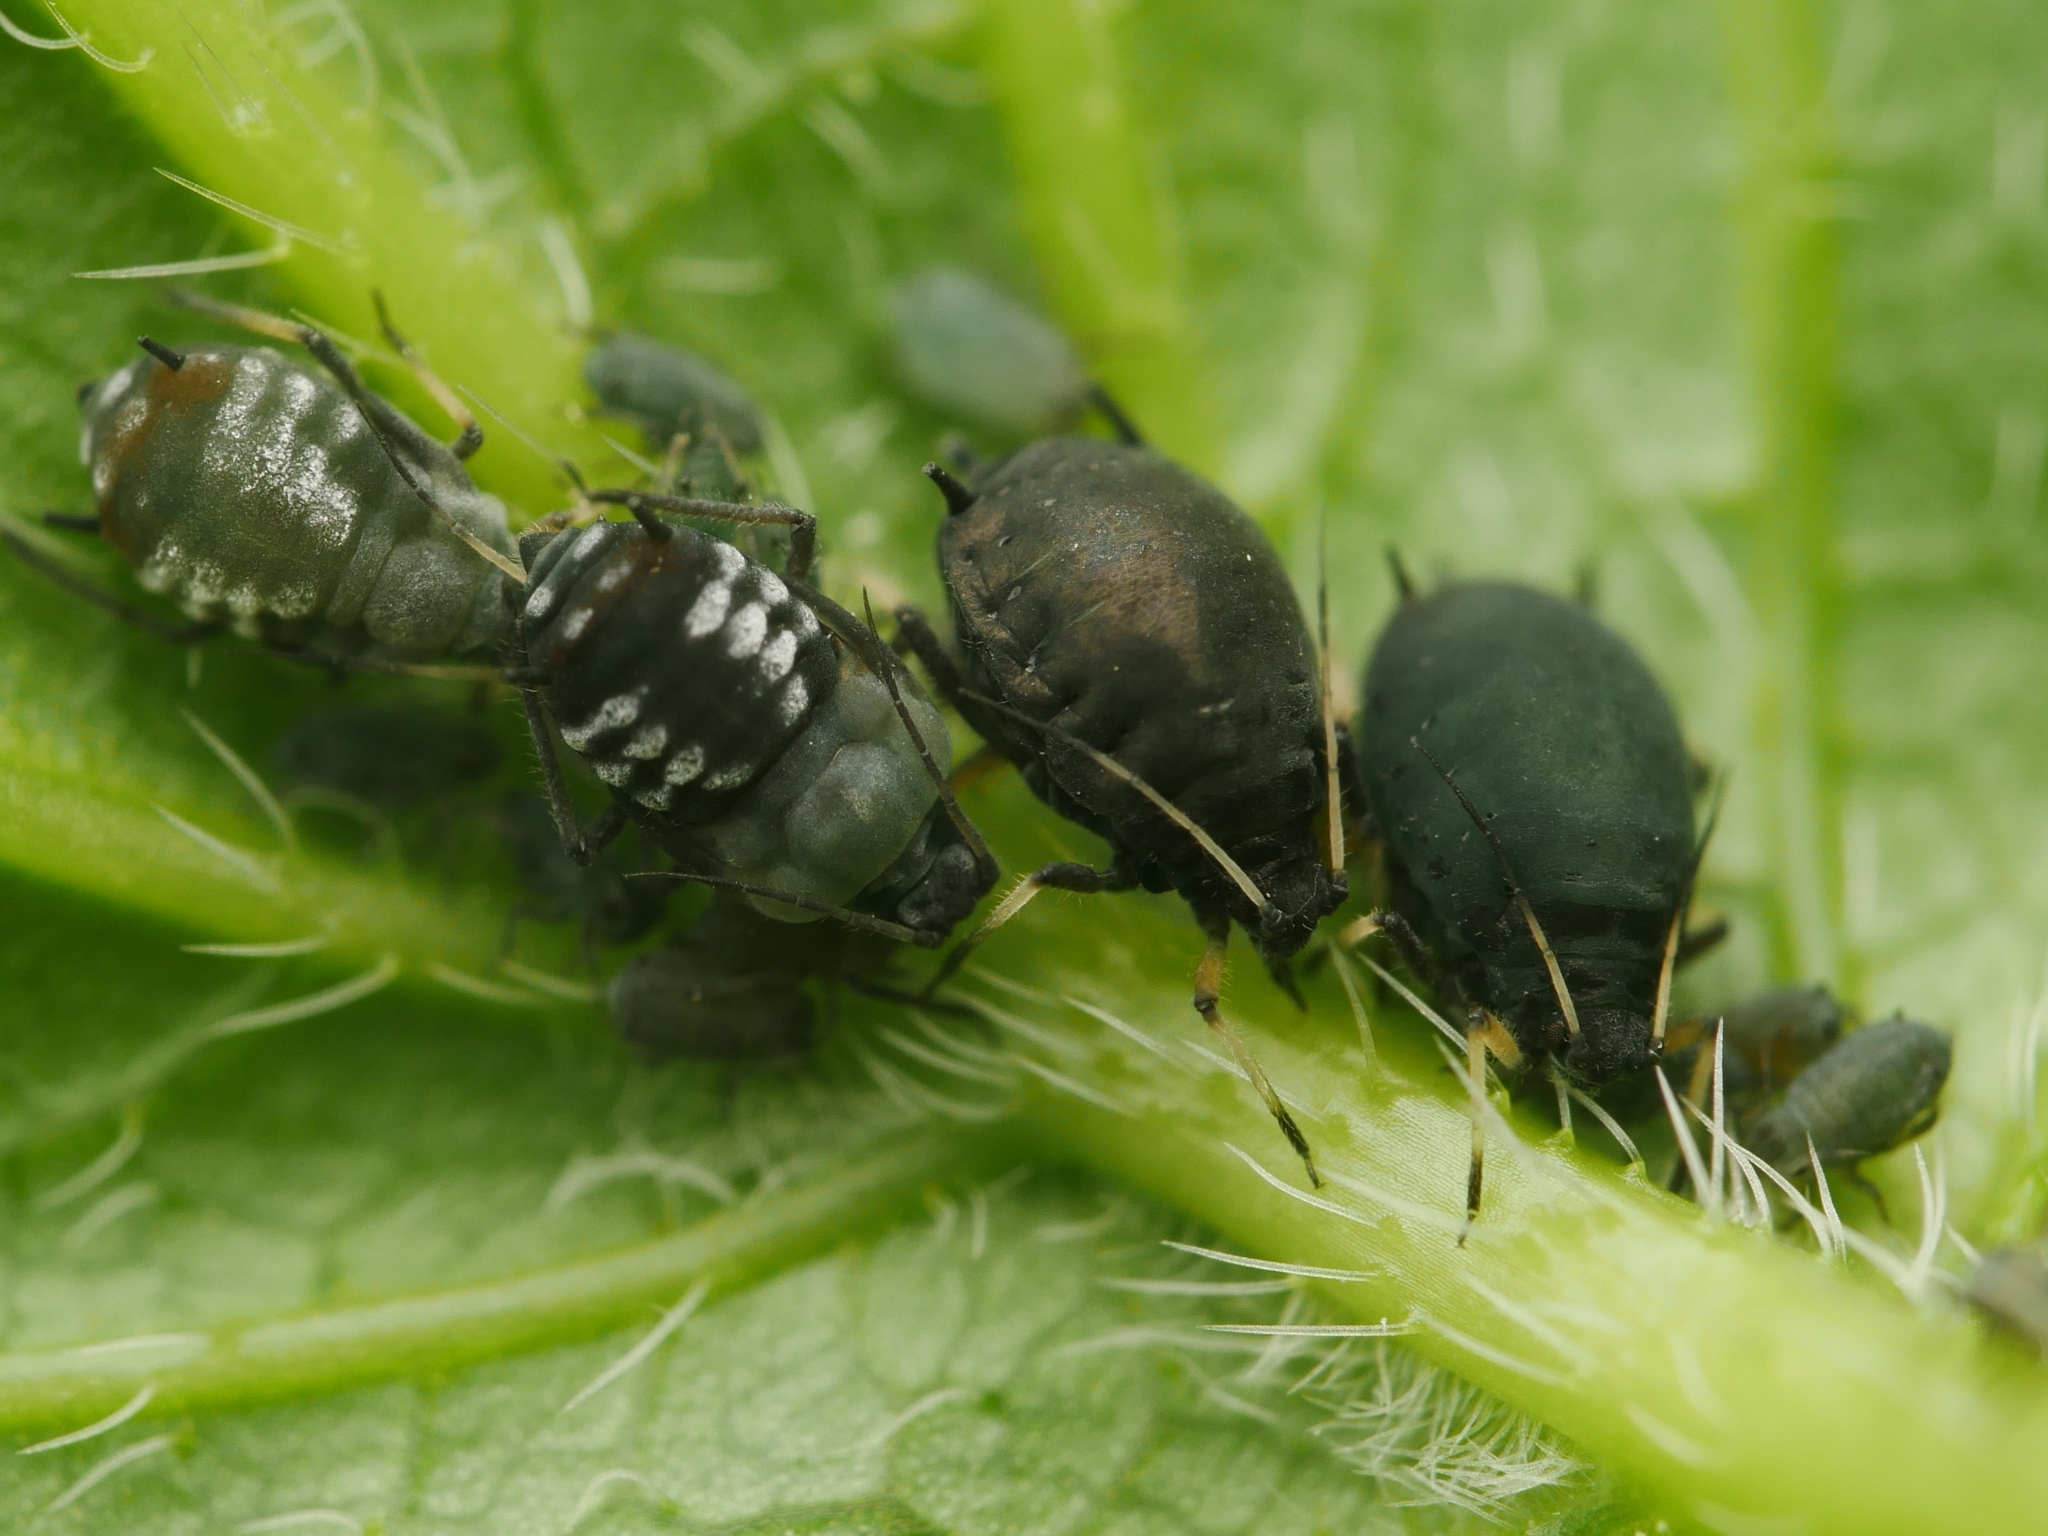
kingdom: Animalia
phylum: Arthropoda
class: Insecta
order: Hemiptera
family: Aphididae
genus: Aphis
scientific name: Aphis fabae
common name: Bean aphid
